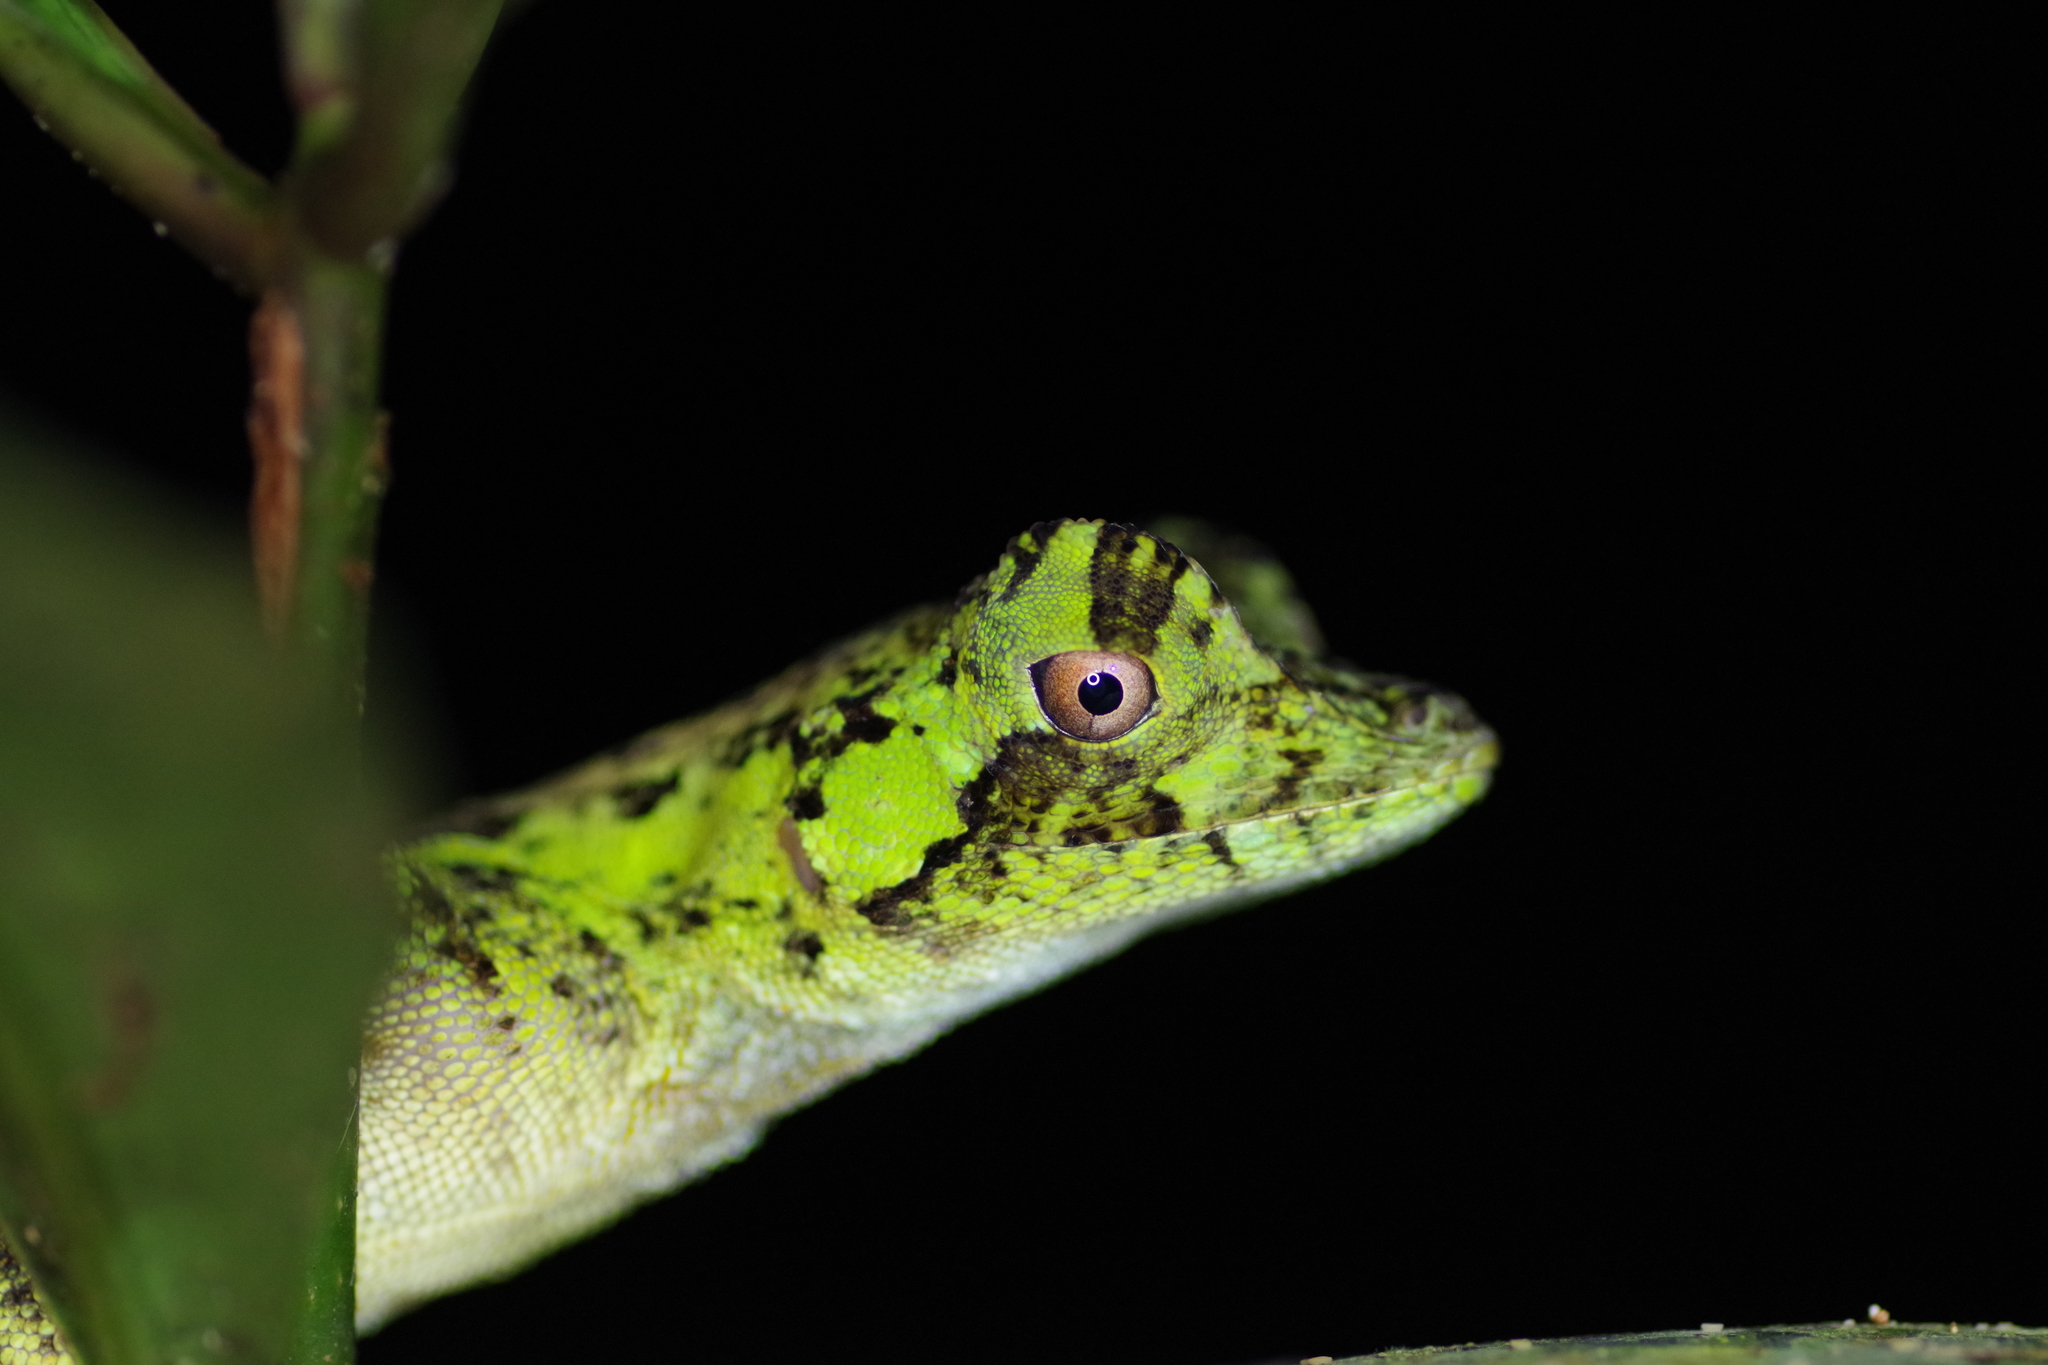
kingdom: Animalia
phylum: Chordata
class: Squamata
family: Dactyloidae
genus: Anolis
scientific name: Anolis capito
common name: Bighead anole
